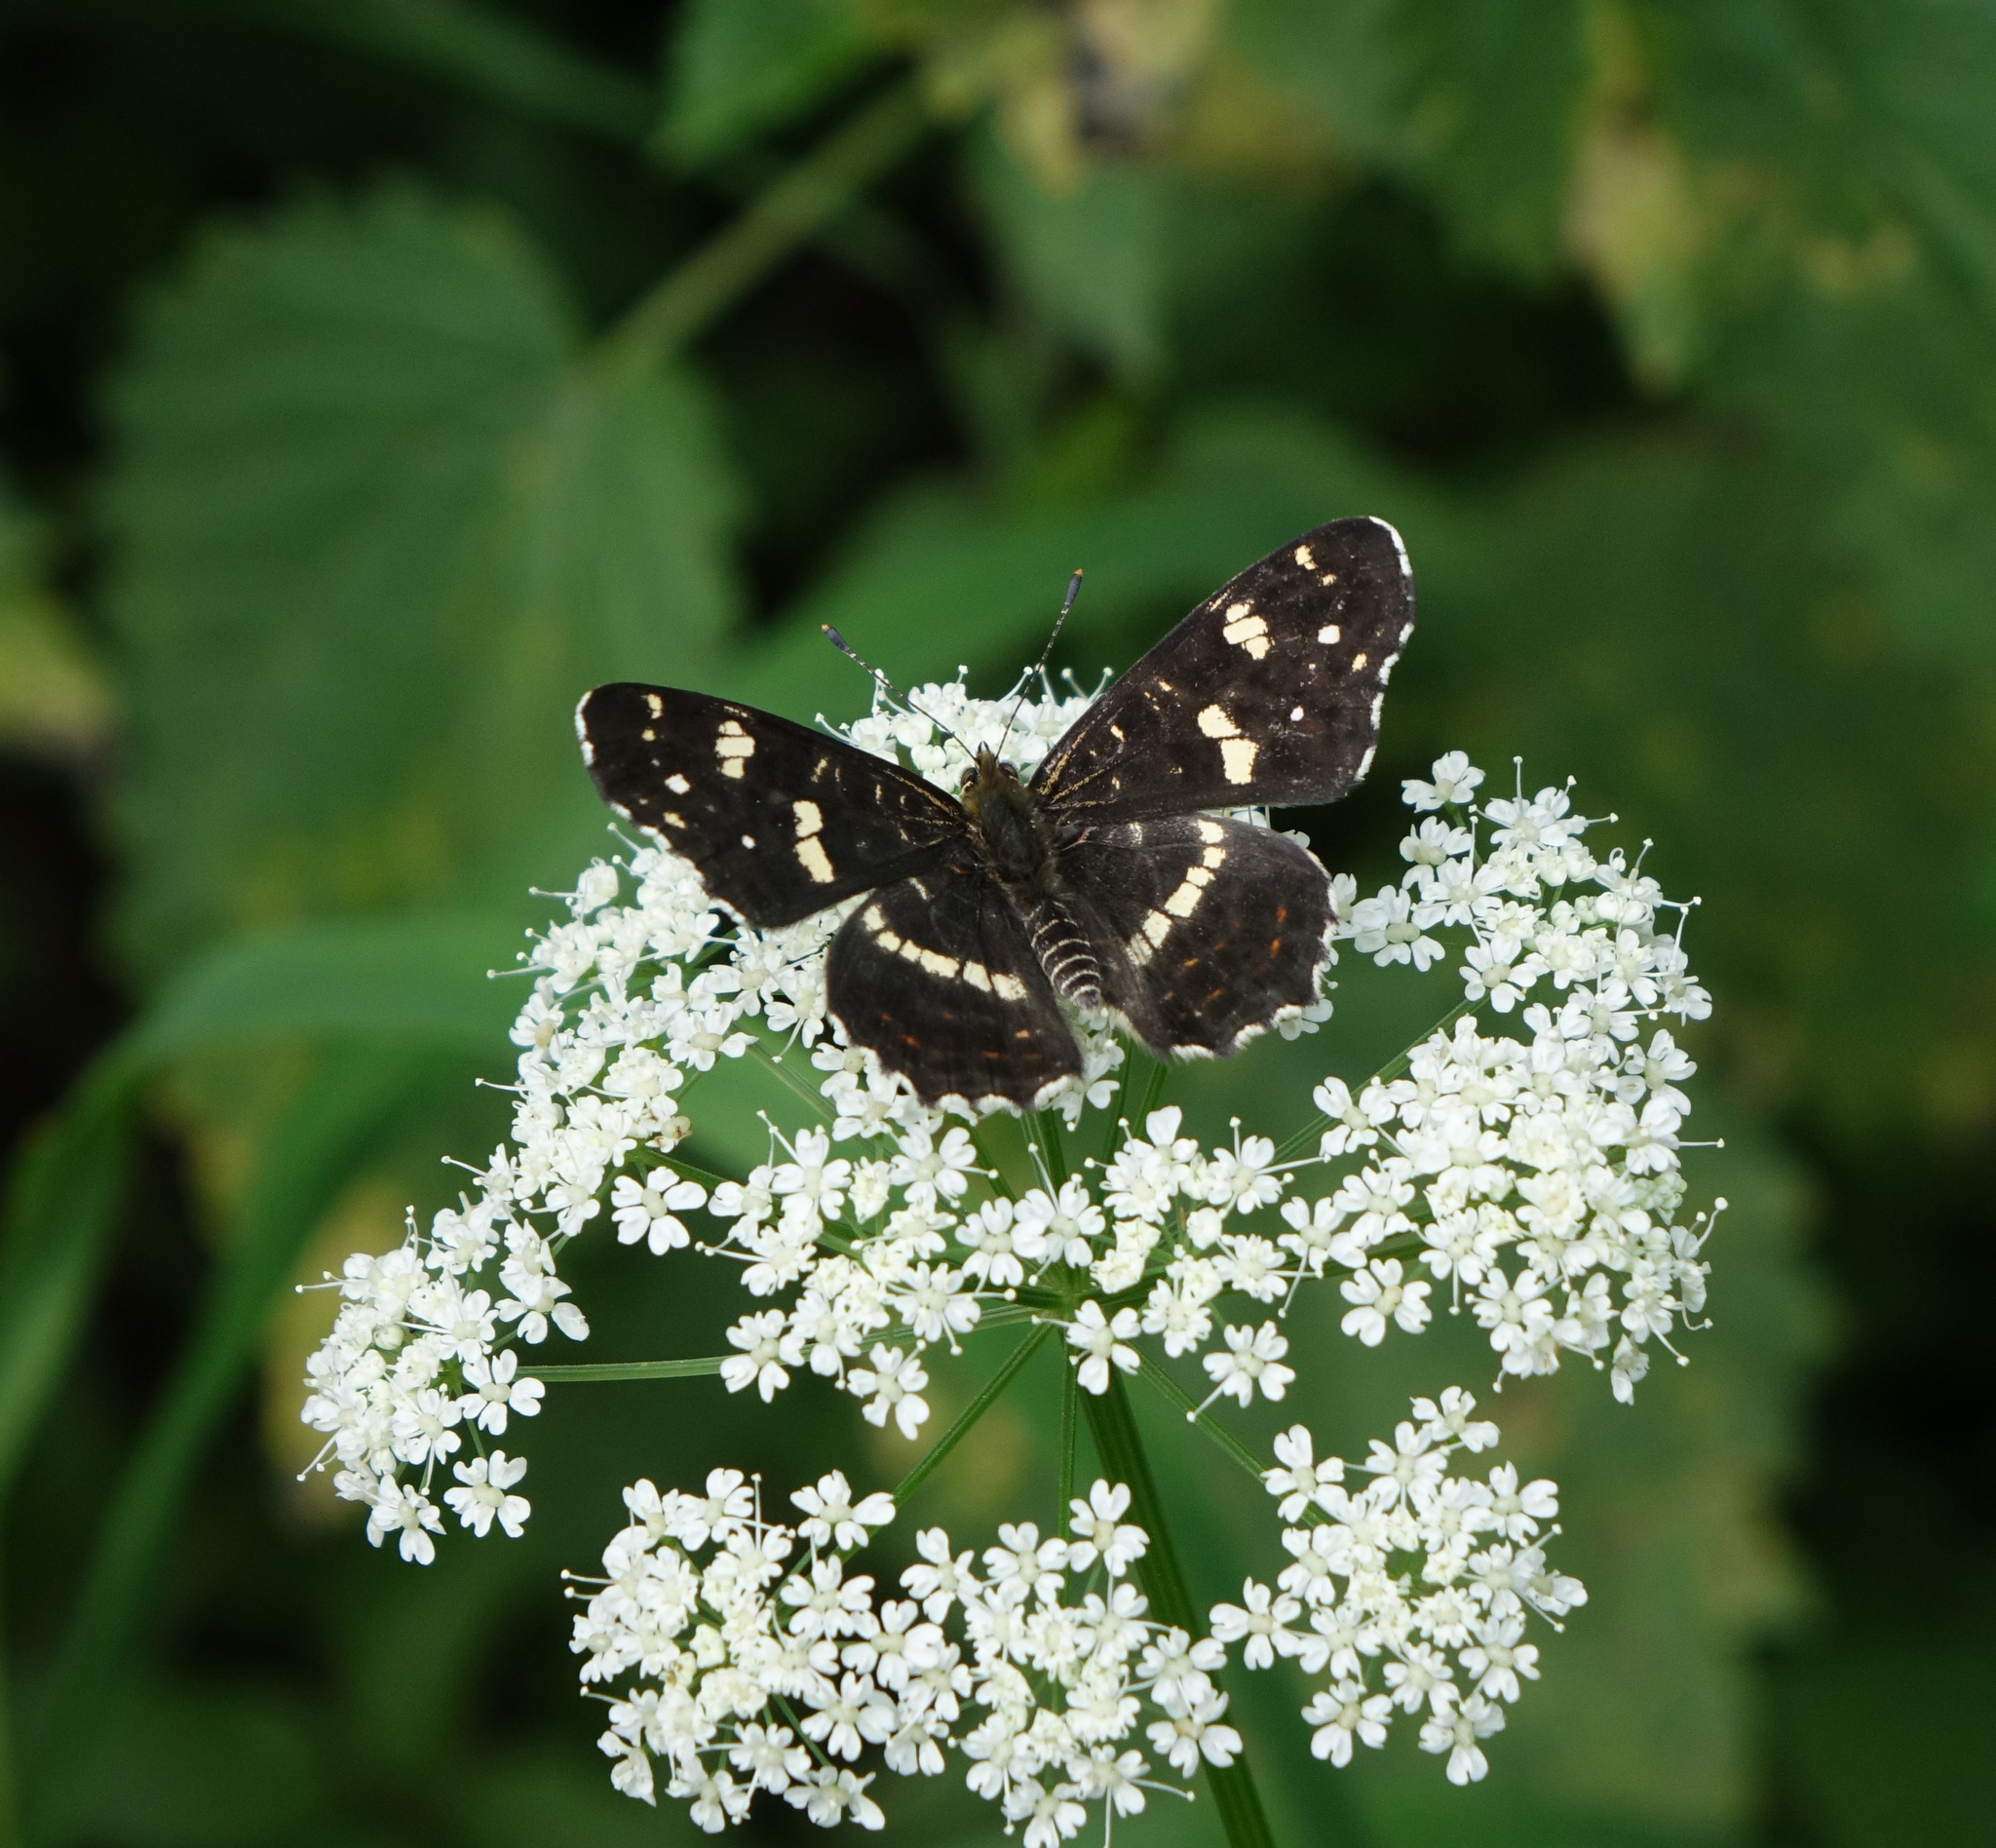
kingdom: Animalia
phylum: Arthropoda
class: Insecta
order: Lepidoptera
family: Nymphalidae
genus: Araschnia
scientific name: Araschnia levana
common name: Map butterfly
